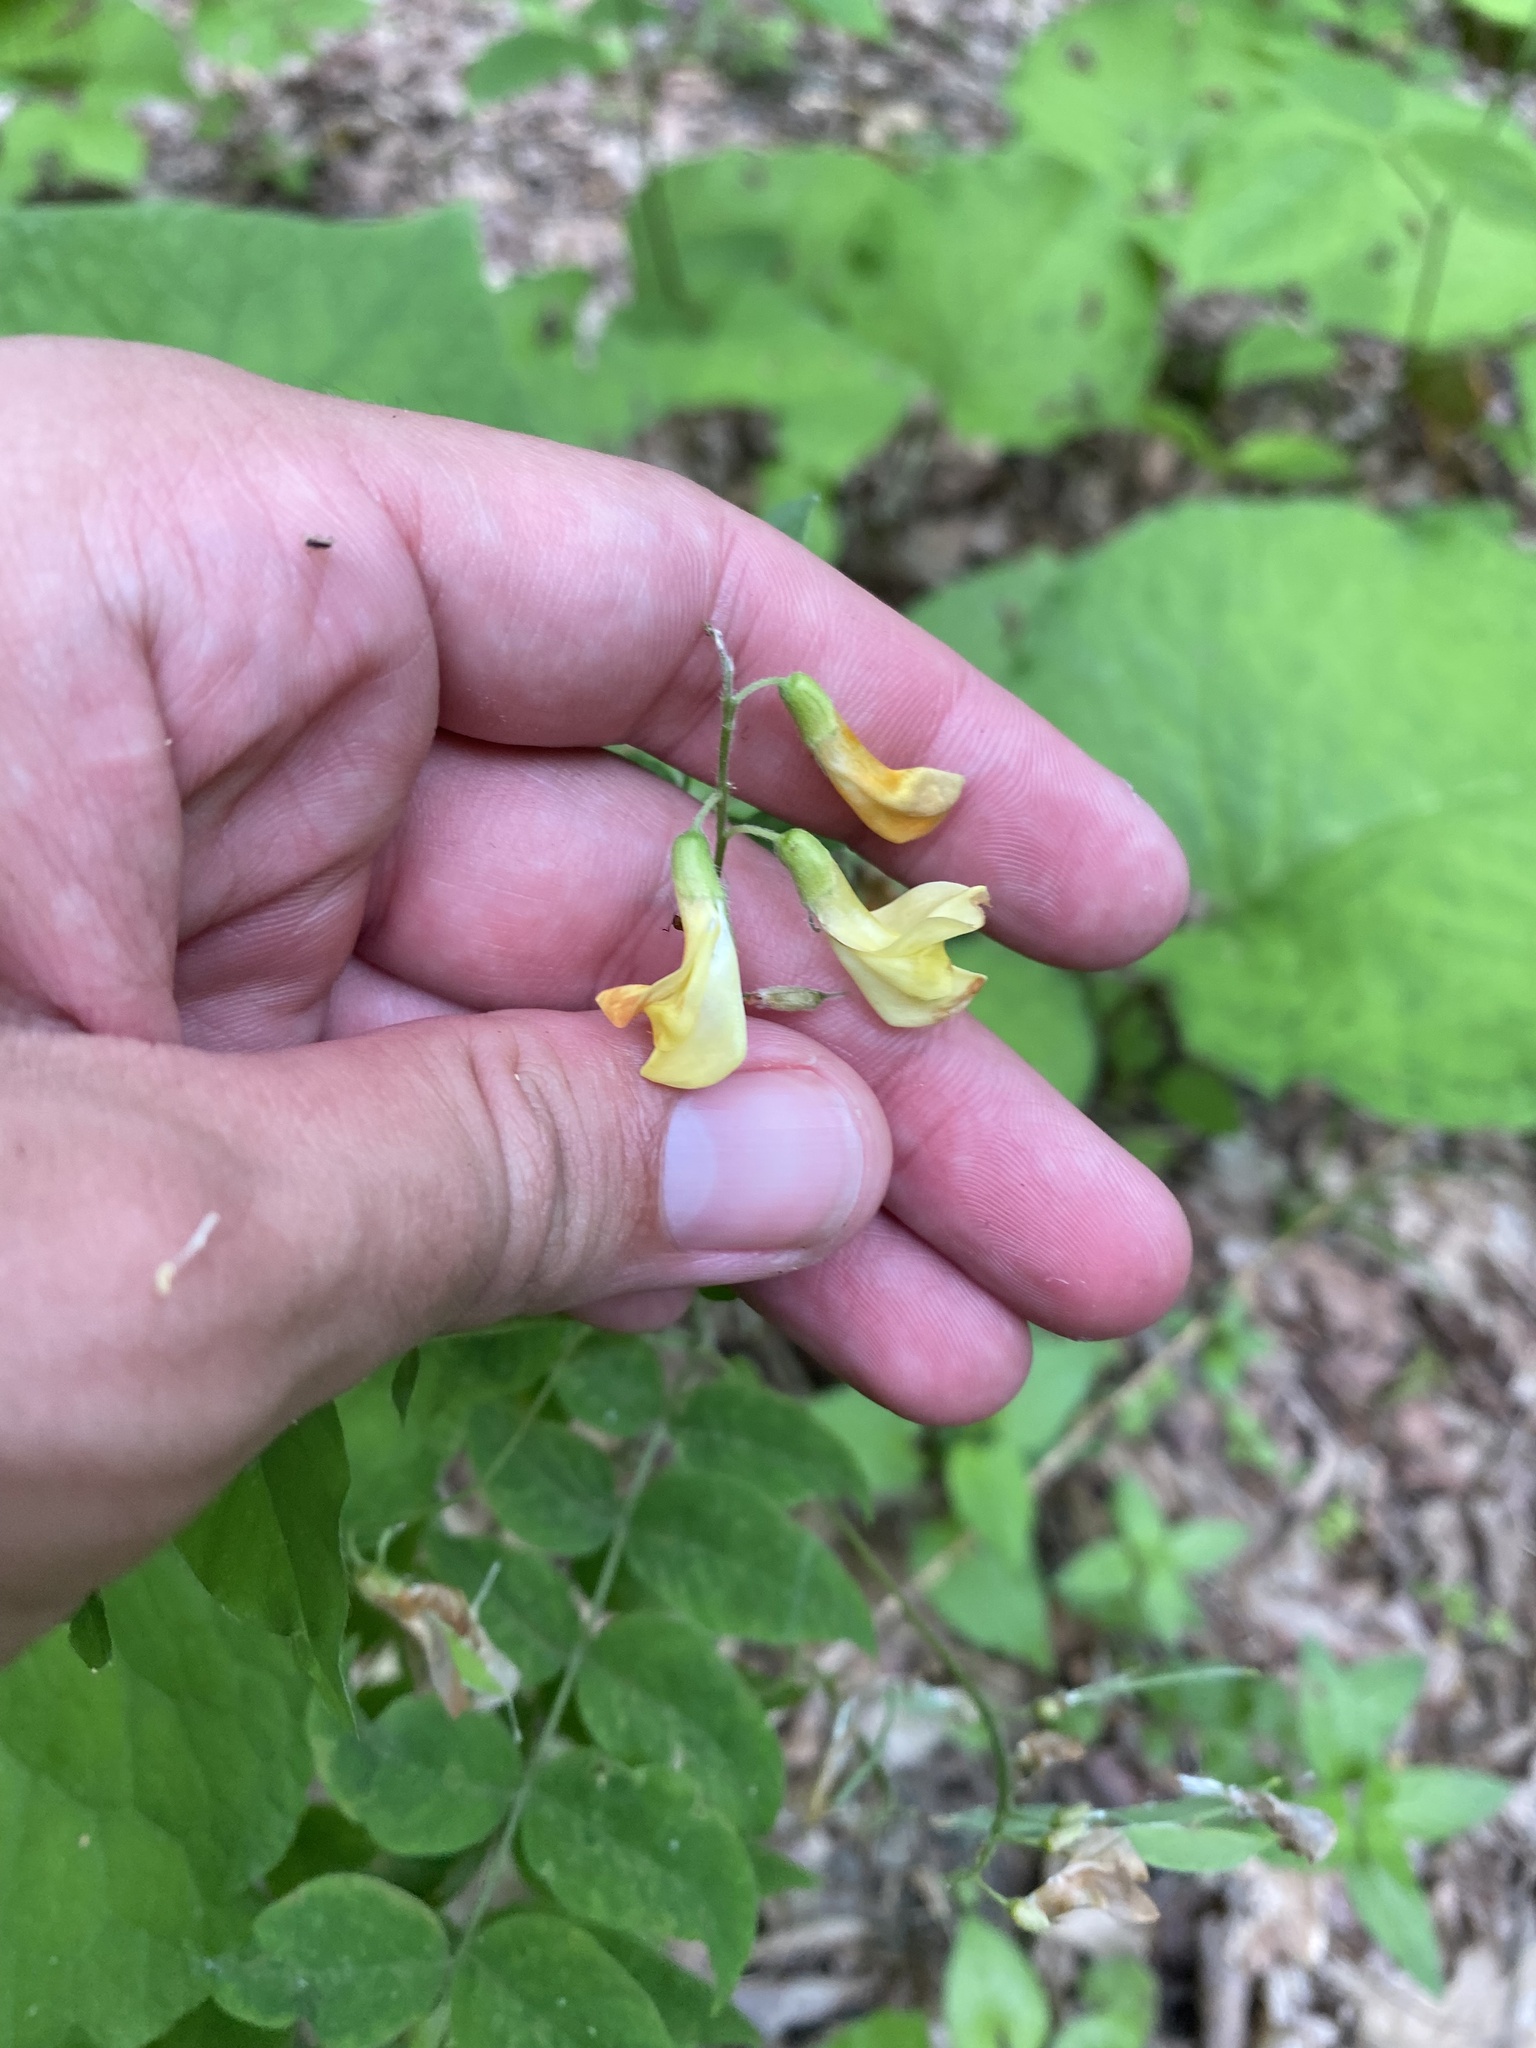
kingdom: Plantae
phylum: Tracheophyta
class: Magnoliopsida
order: Fabales
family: Fabaceae
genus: Vicia
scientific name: Vicia crocea
